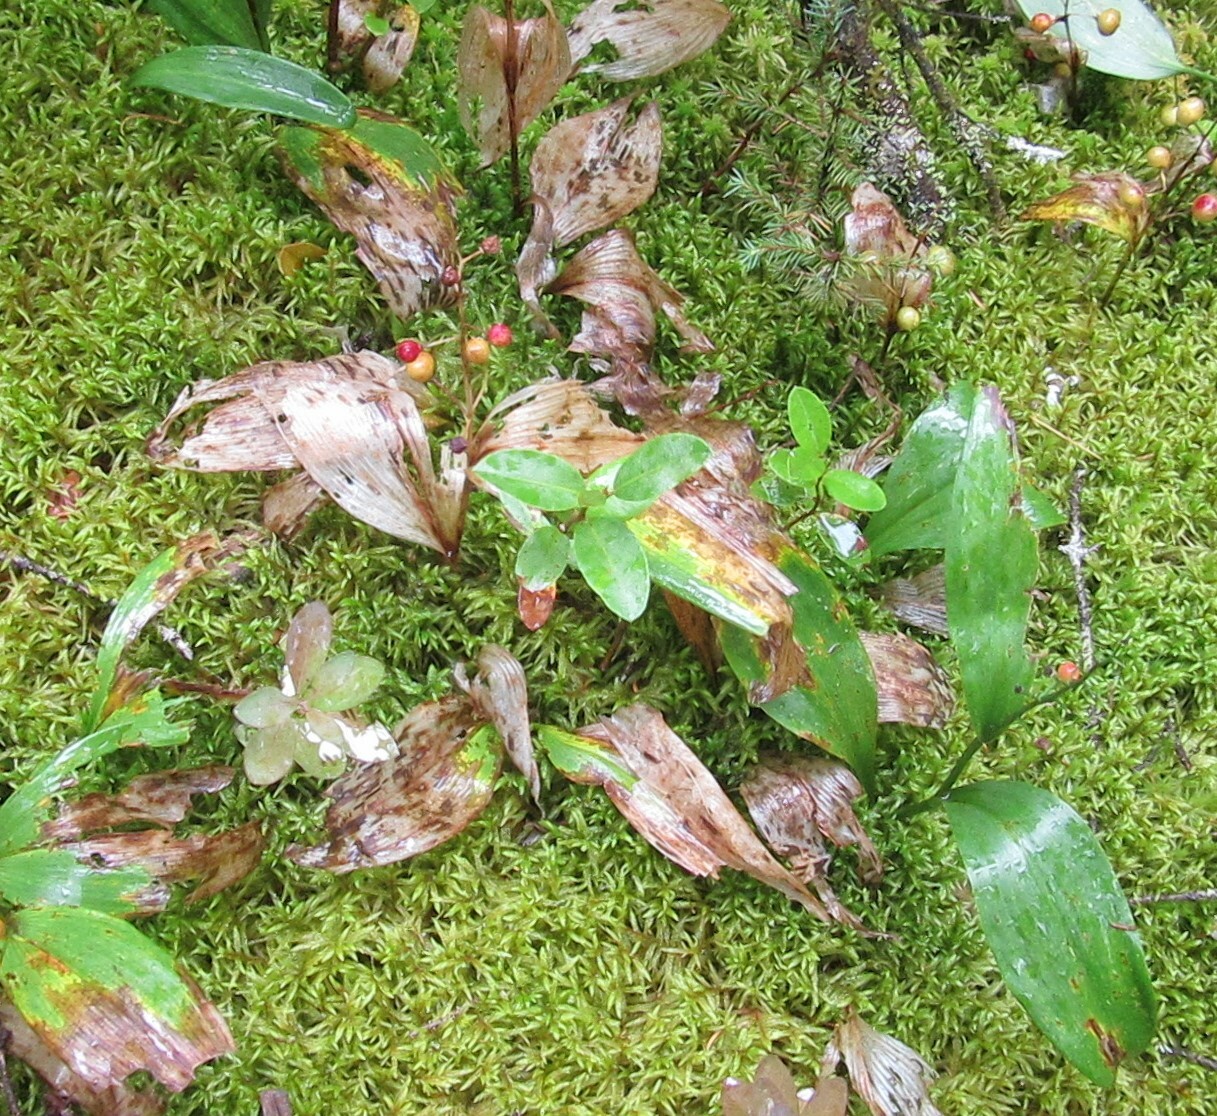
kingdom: Plantae
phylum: Tracheophyta
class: Liliopsida
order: Asparagales
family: Asparagaceae
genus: Maianthemum
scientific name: Maianthemum trifolium
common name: Swamp false solomon's seal
